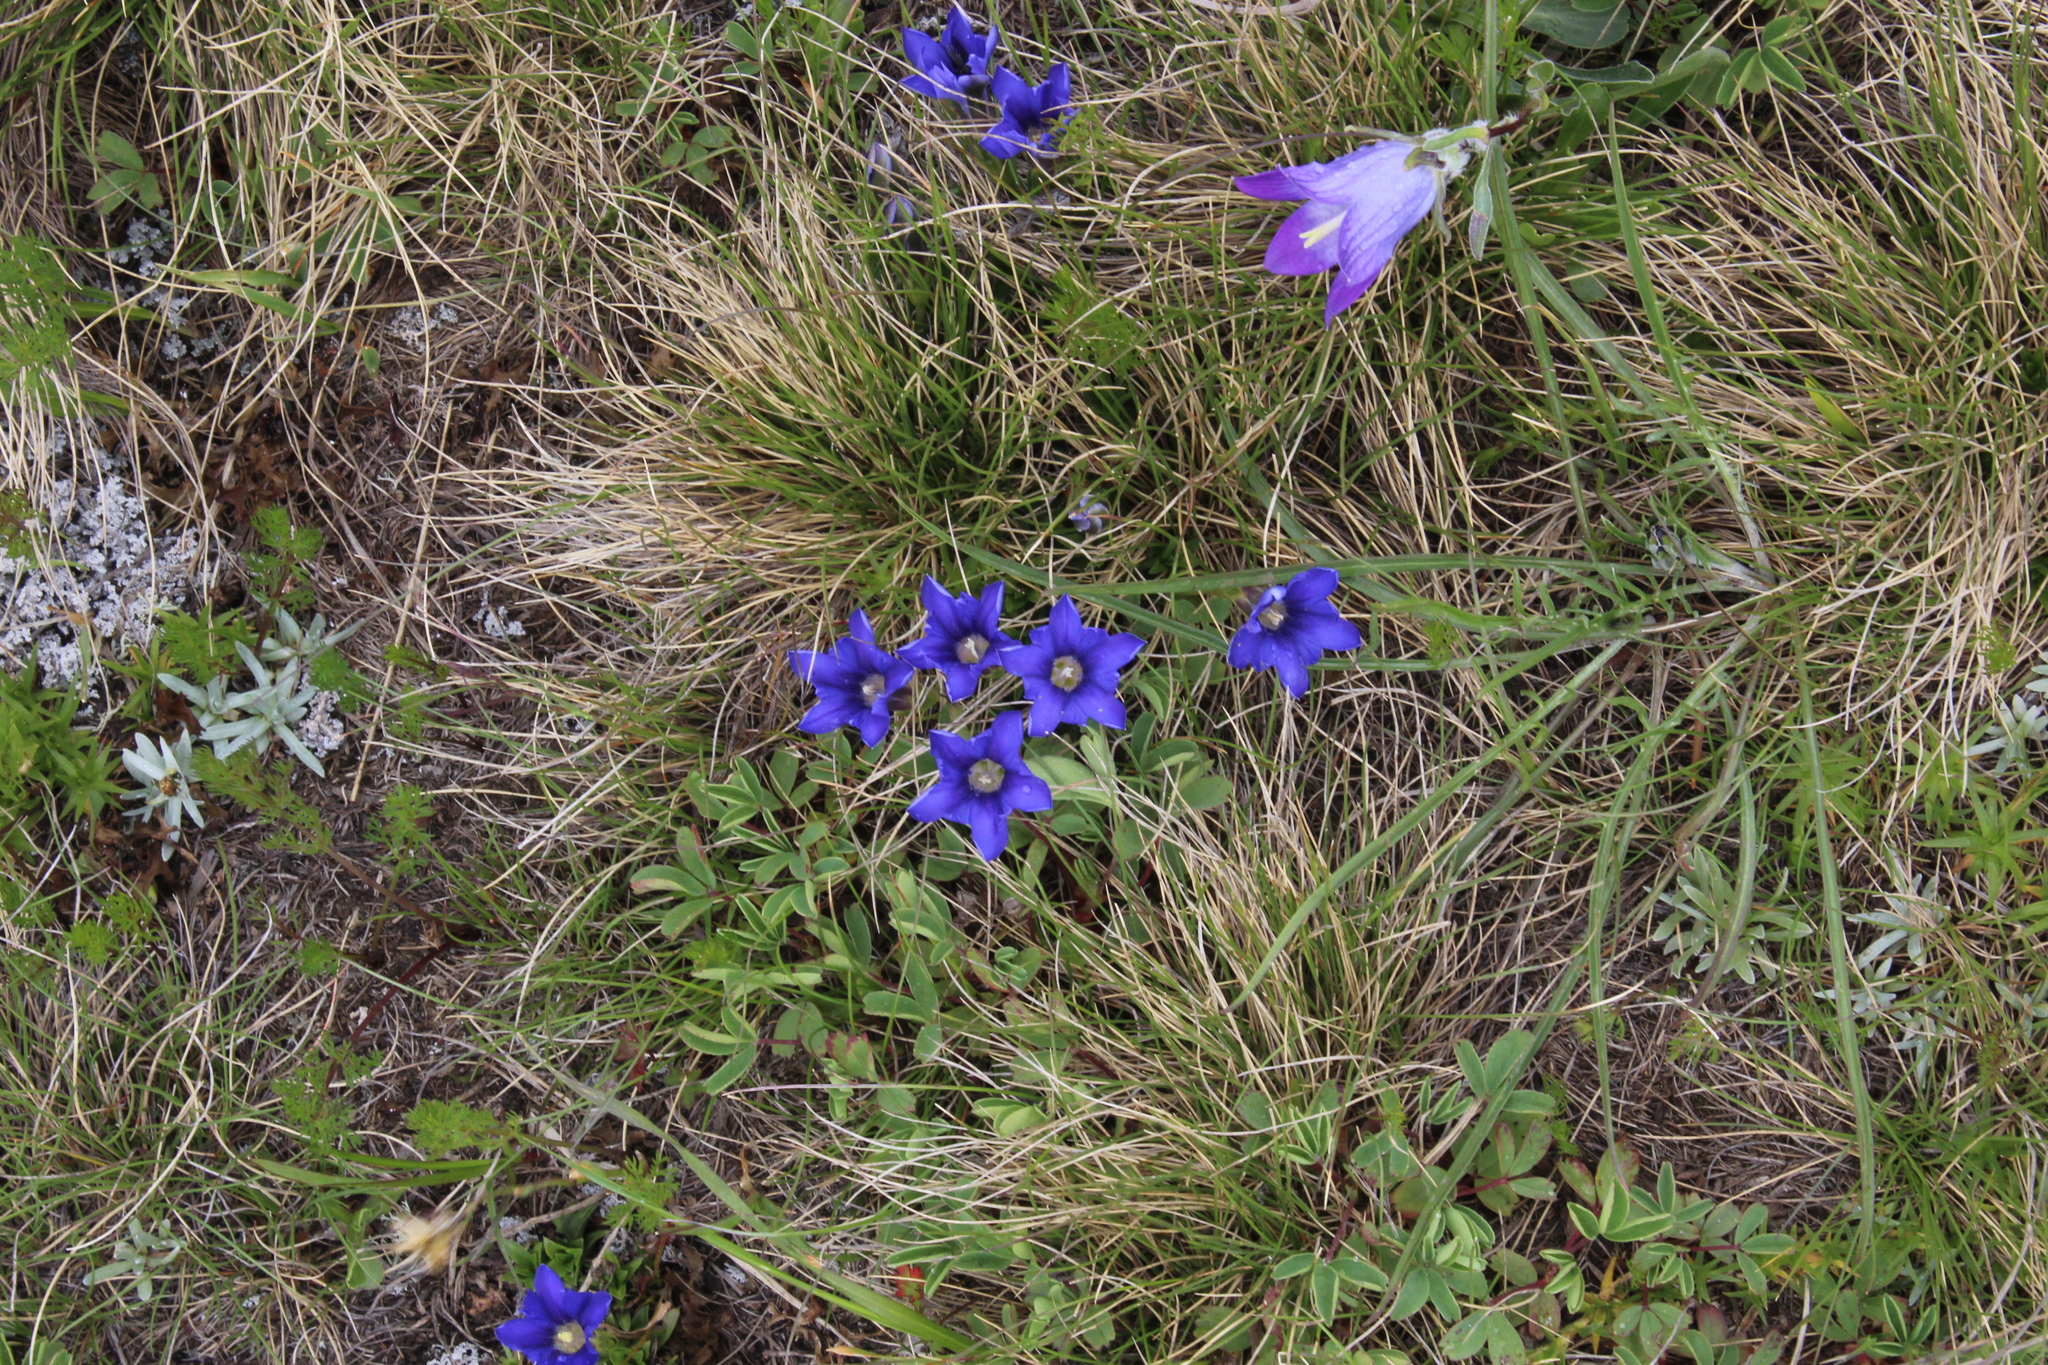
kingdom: Plantae
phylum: Tracheophyta
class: Magnoliopsida
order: Gentianales
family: Gentianaceae
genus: Gentiana
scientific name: Gentiana dshimilensis
